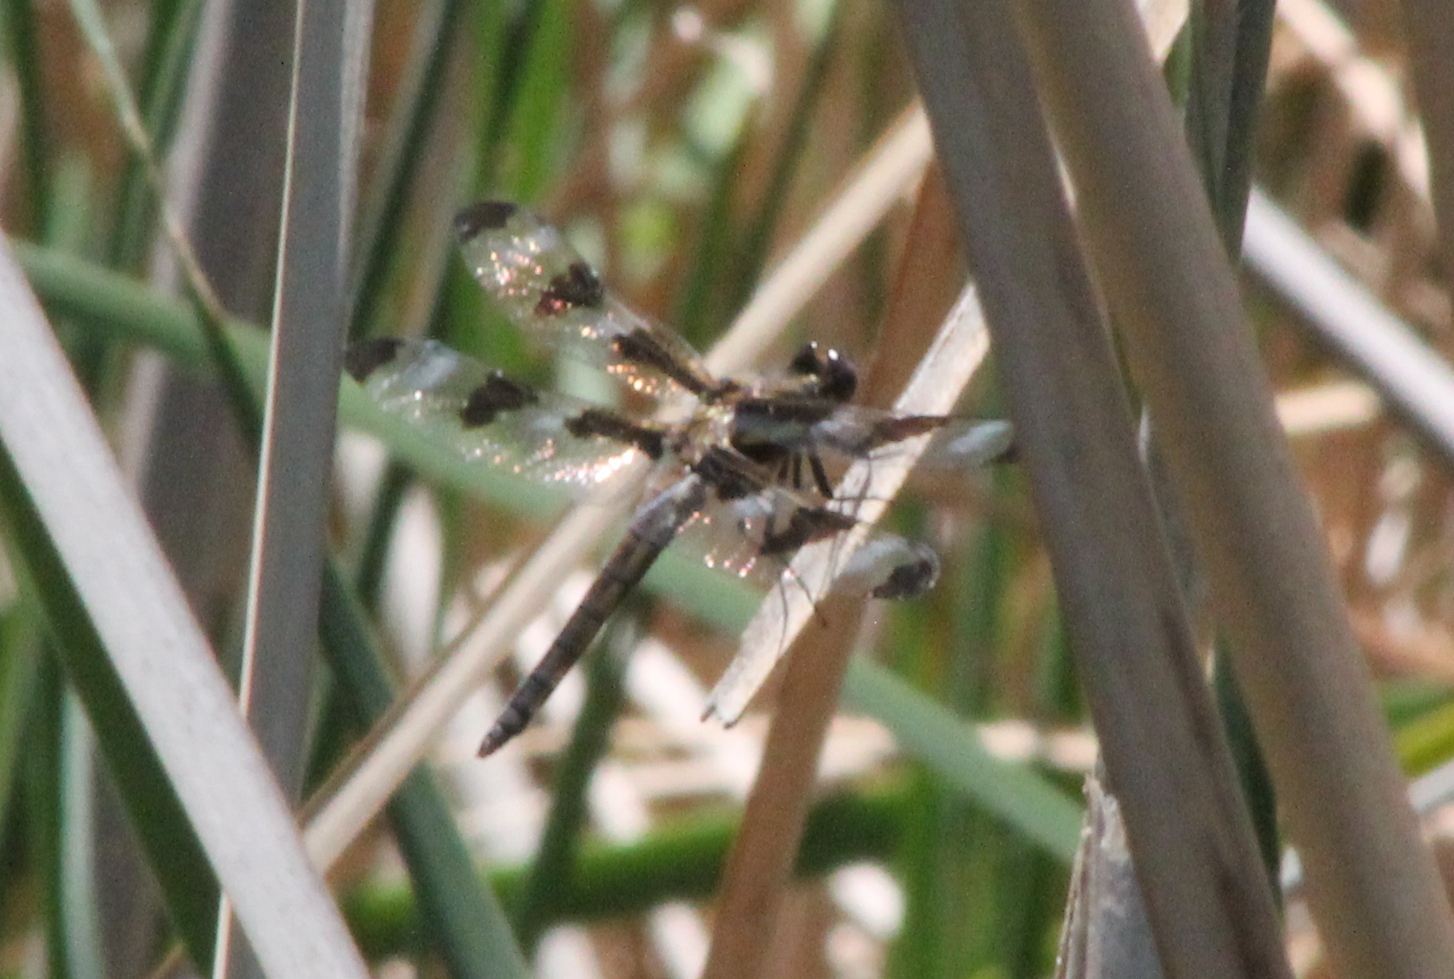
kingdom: Animalia
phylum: Arthropoda
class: Insecta
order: Odonata
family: Libellulidae
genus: Libellula
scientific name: Libellula pulchella
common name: Twelve-spotted skimmer
